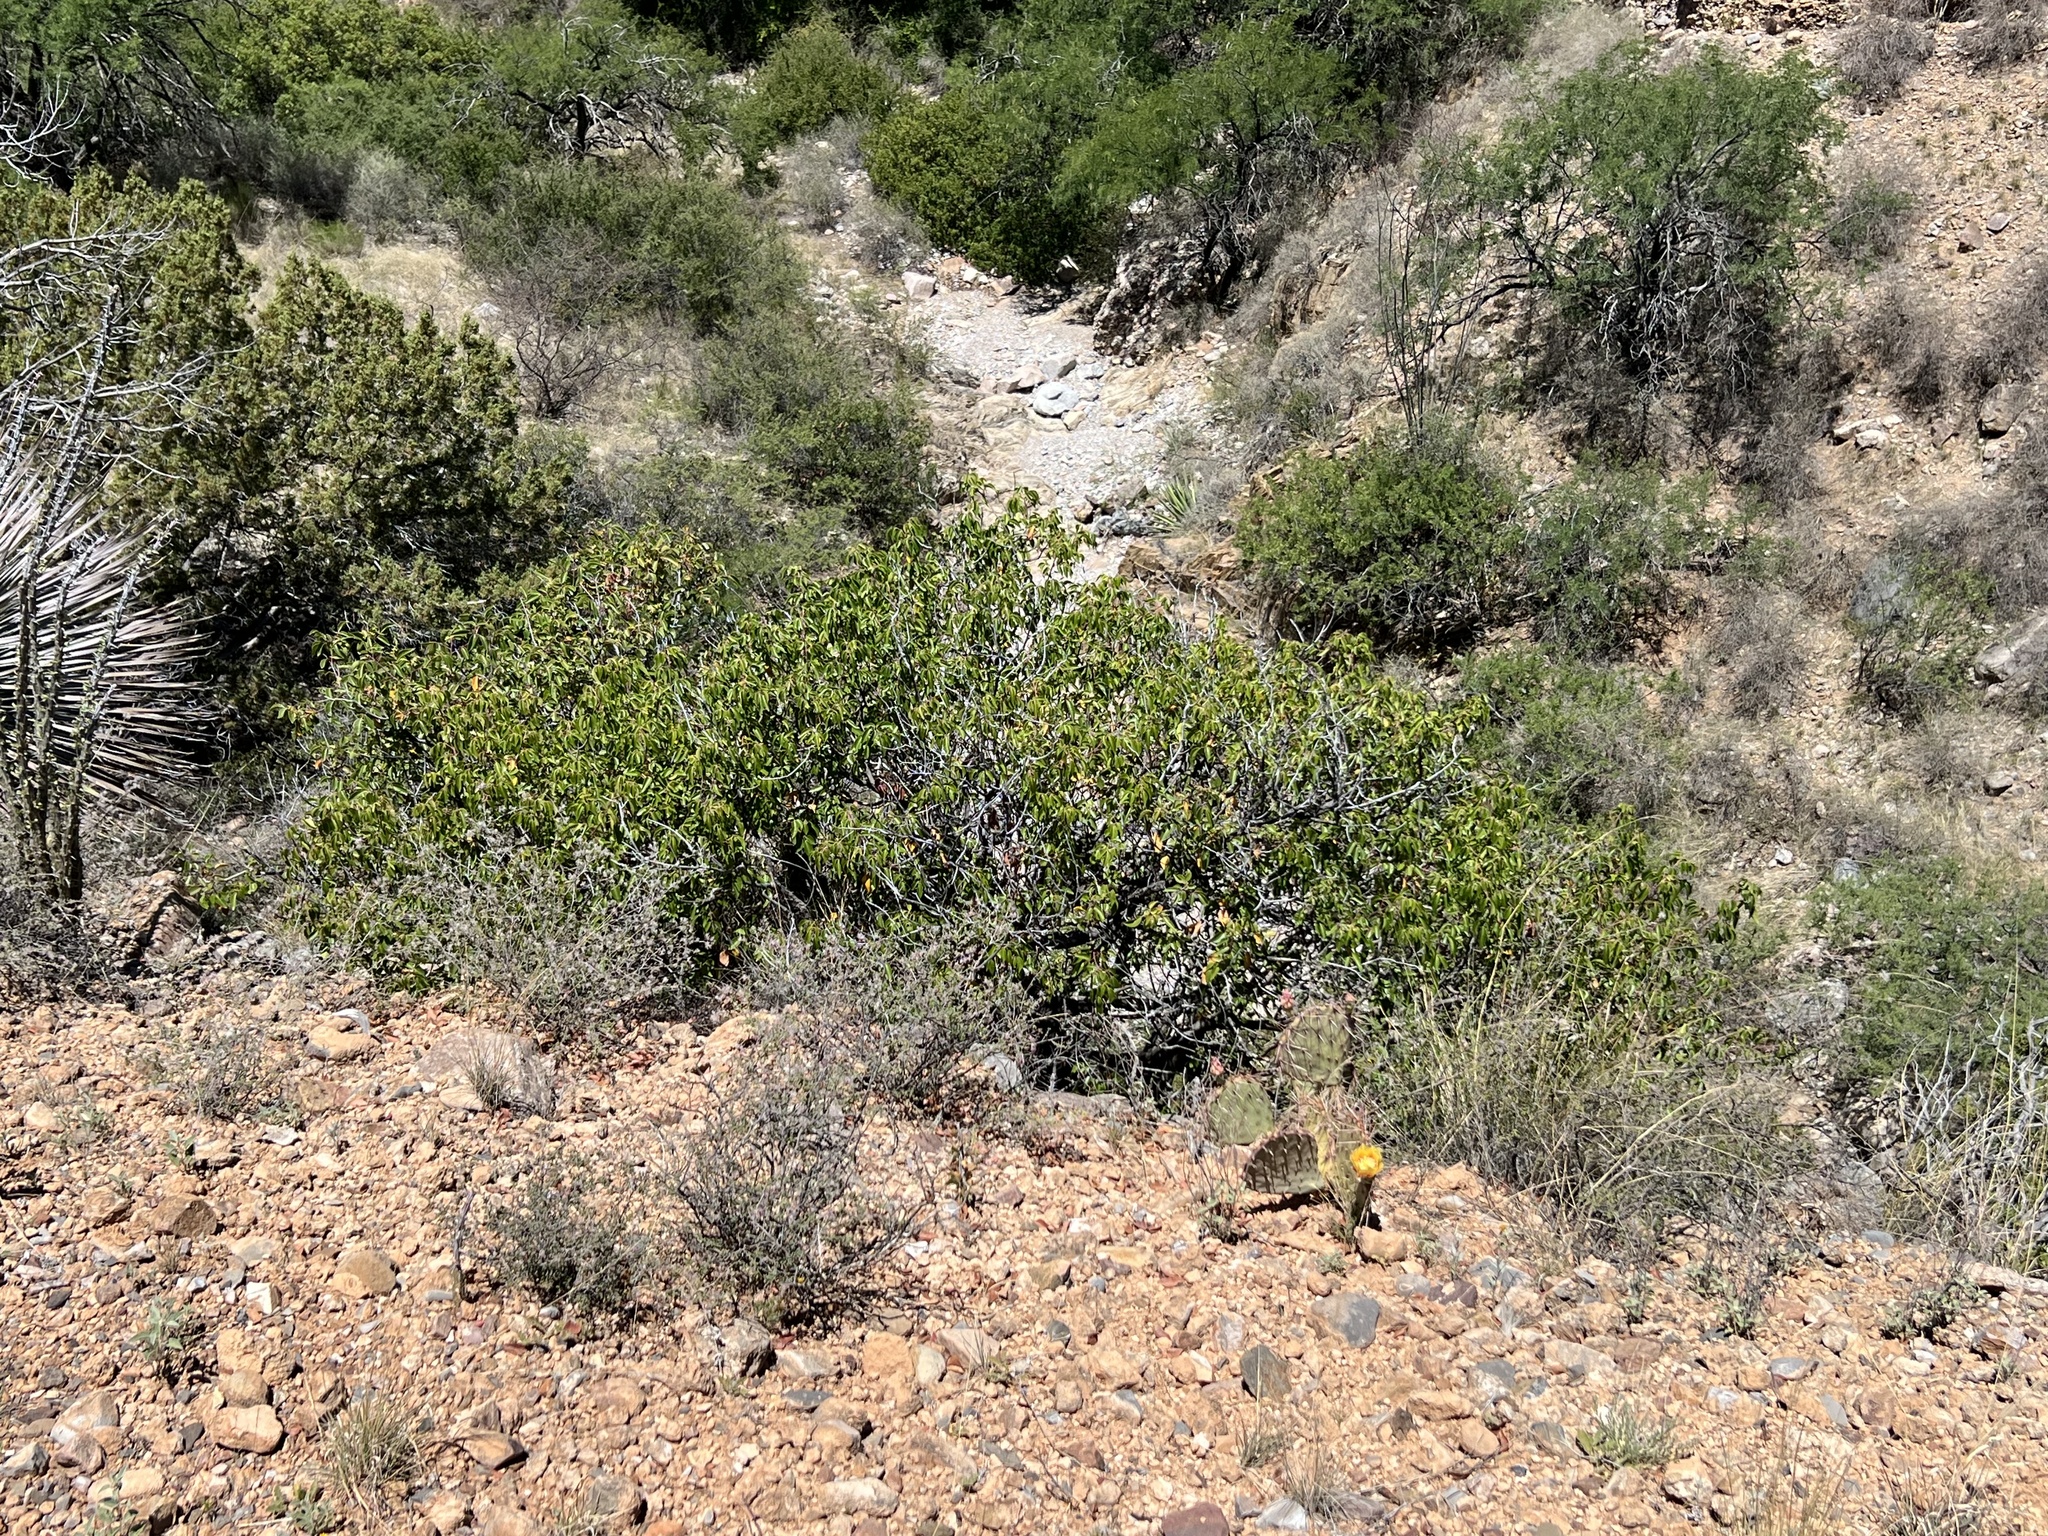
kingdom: Plantae
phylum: Tracheophyta
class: Magnoliopsida
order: Sapindales
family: Anacardiaceae
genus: Rhus
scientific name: Rhus virens
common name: Evergreen sumac
